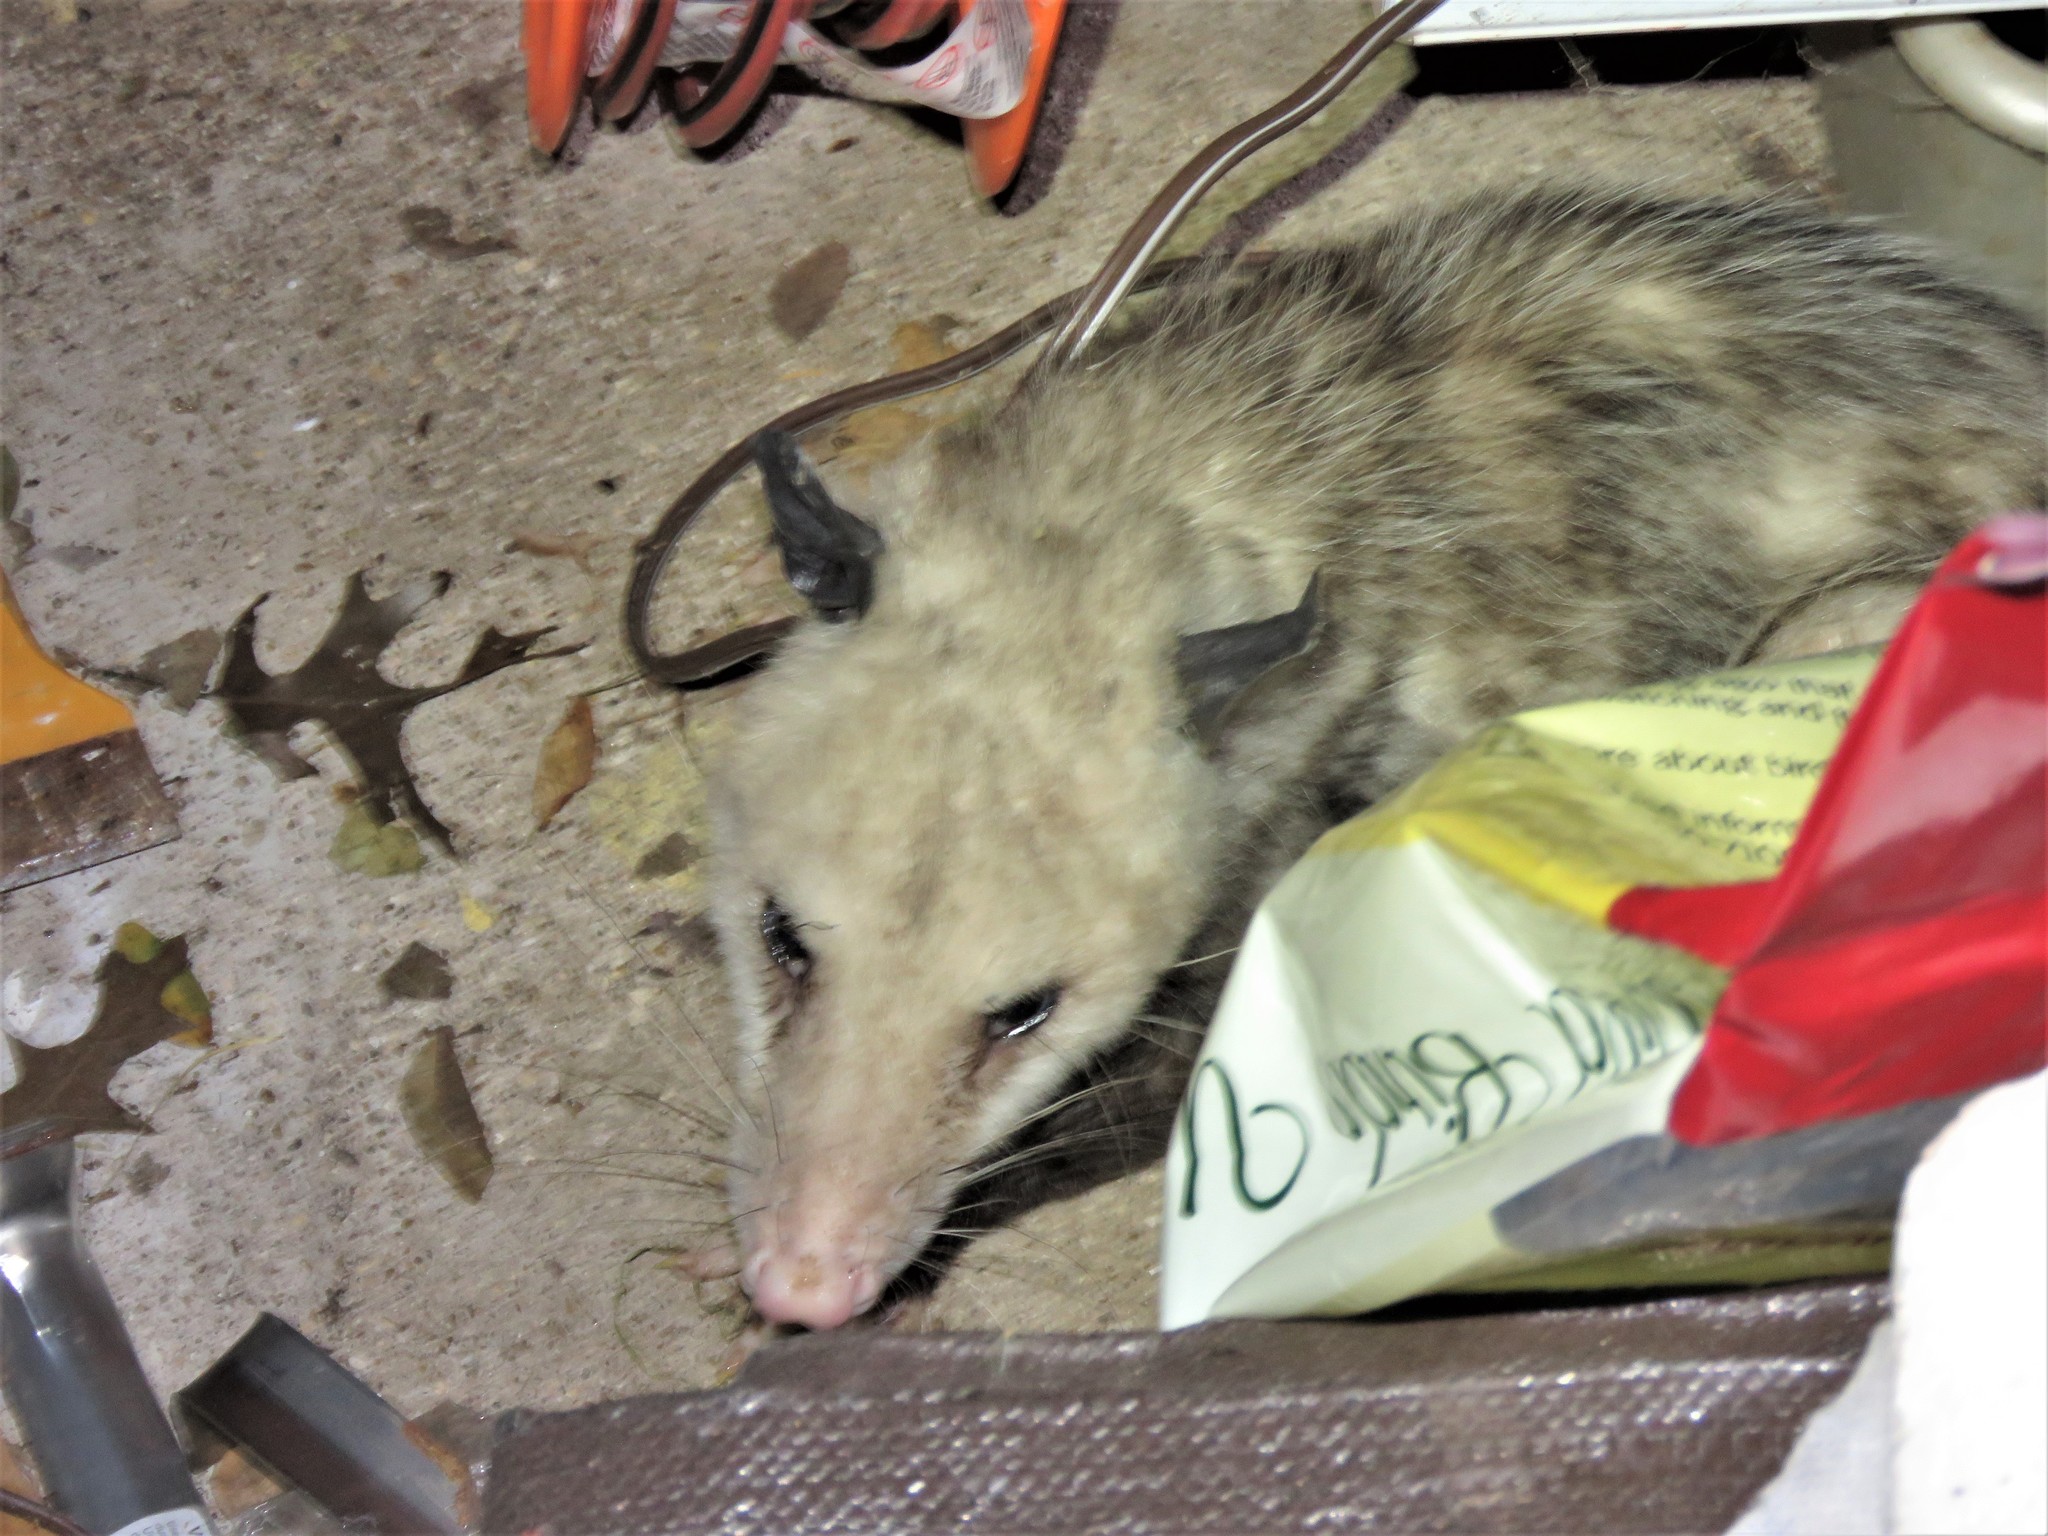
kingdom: Animalia
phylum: Chordata
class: Mammalia
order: Didelphimorphia
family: Didelphidae
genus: Didelphis
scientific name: Didelphis virginiana
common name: Virginia opossum
